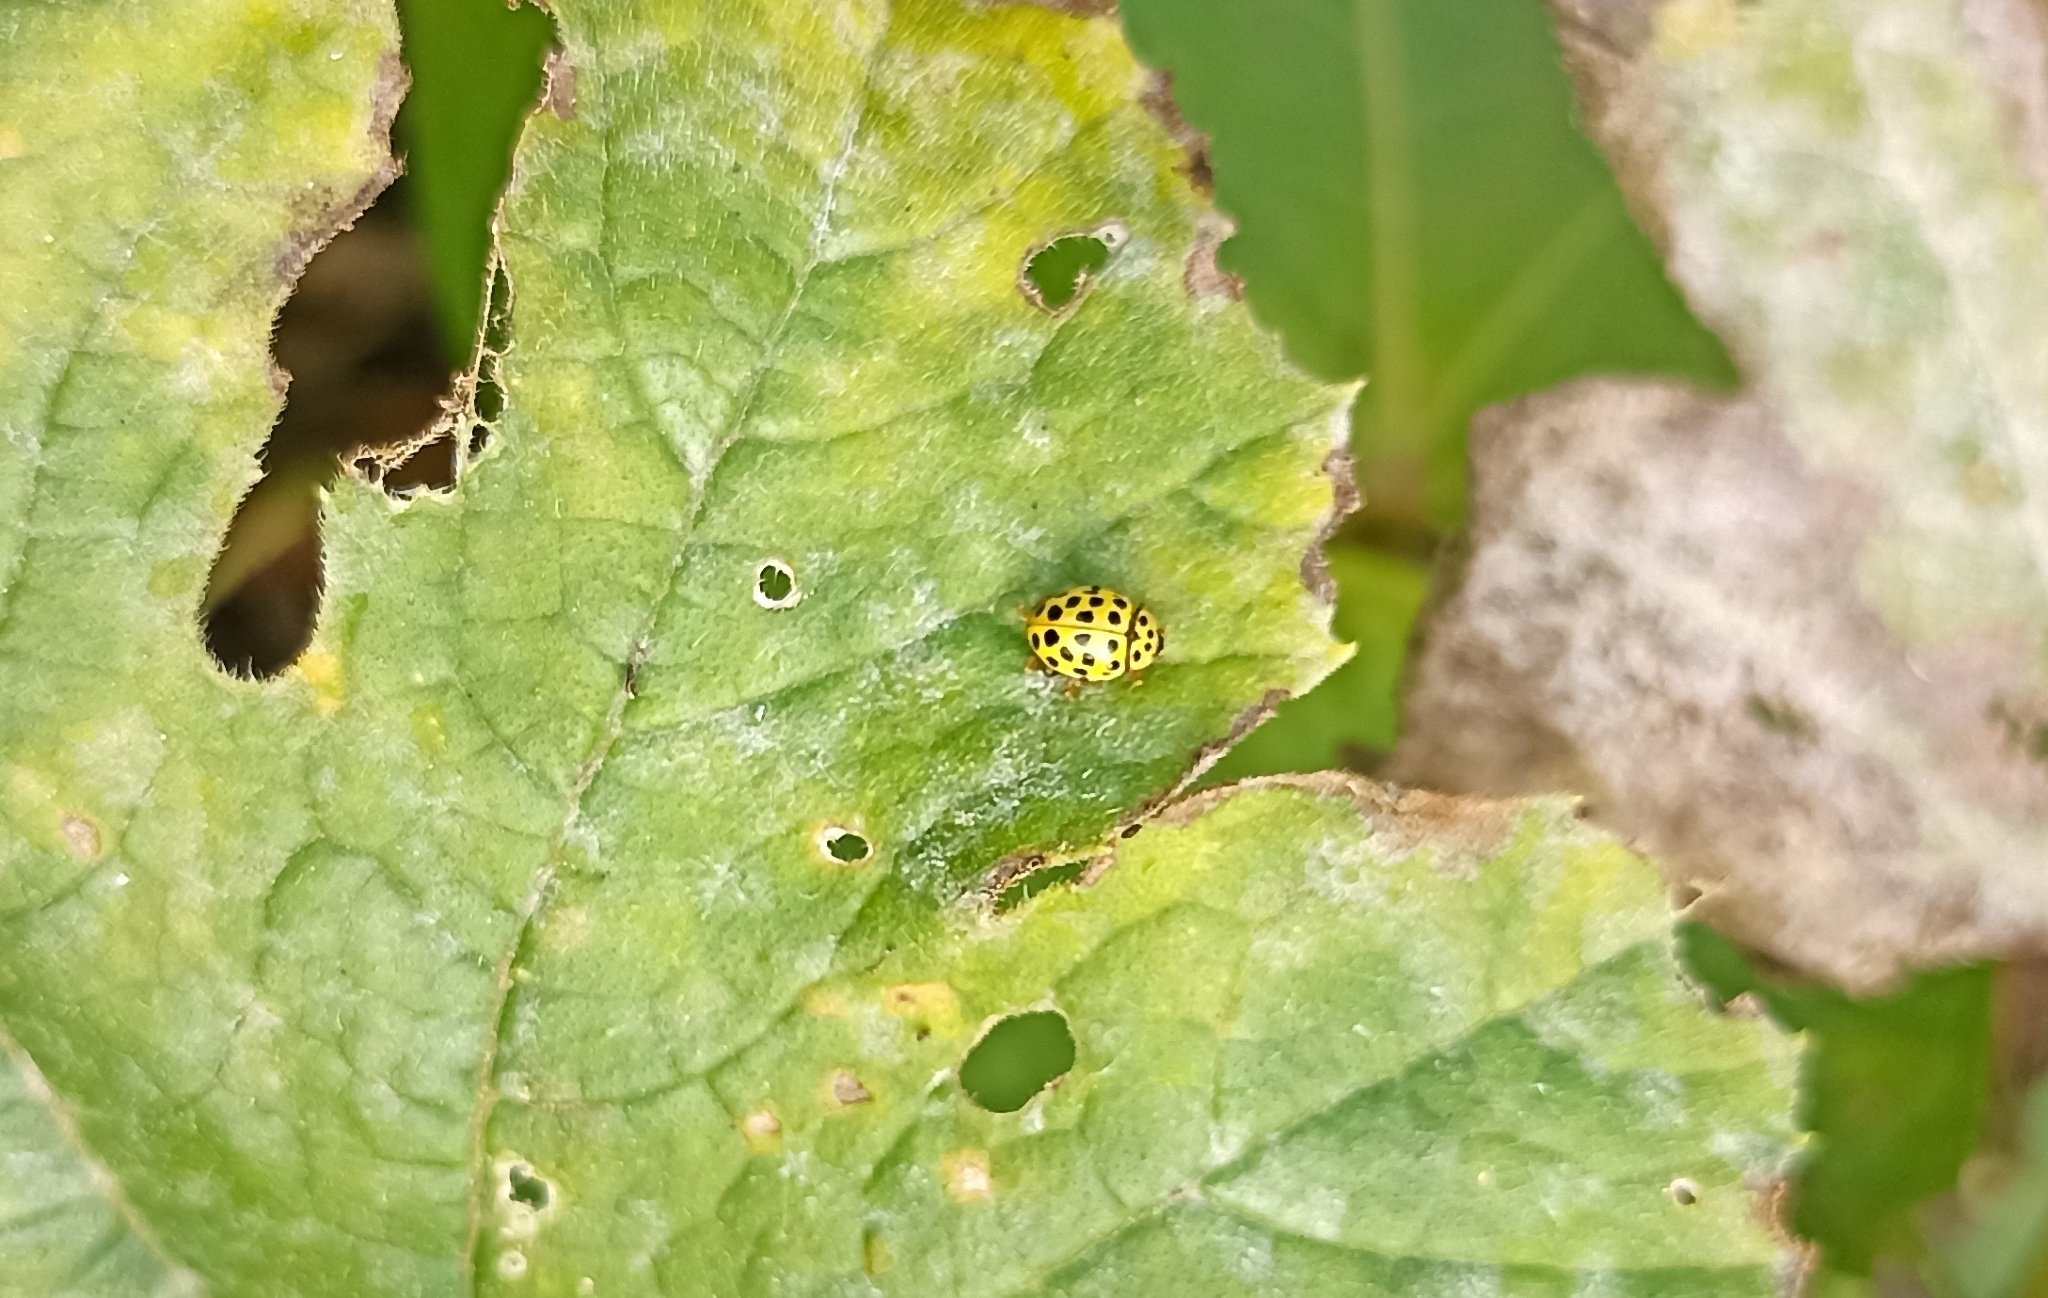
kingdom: Animalia
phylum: Arthropoda
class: Insecta
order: Coleoptera
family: Coccinellidae
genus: Psyllobora
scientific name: Psyllobora vigintiduopunctata
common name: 22-spot ladybird
